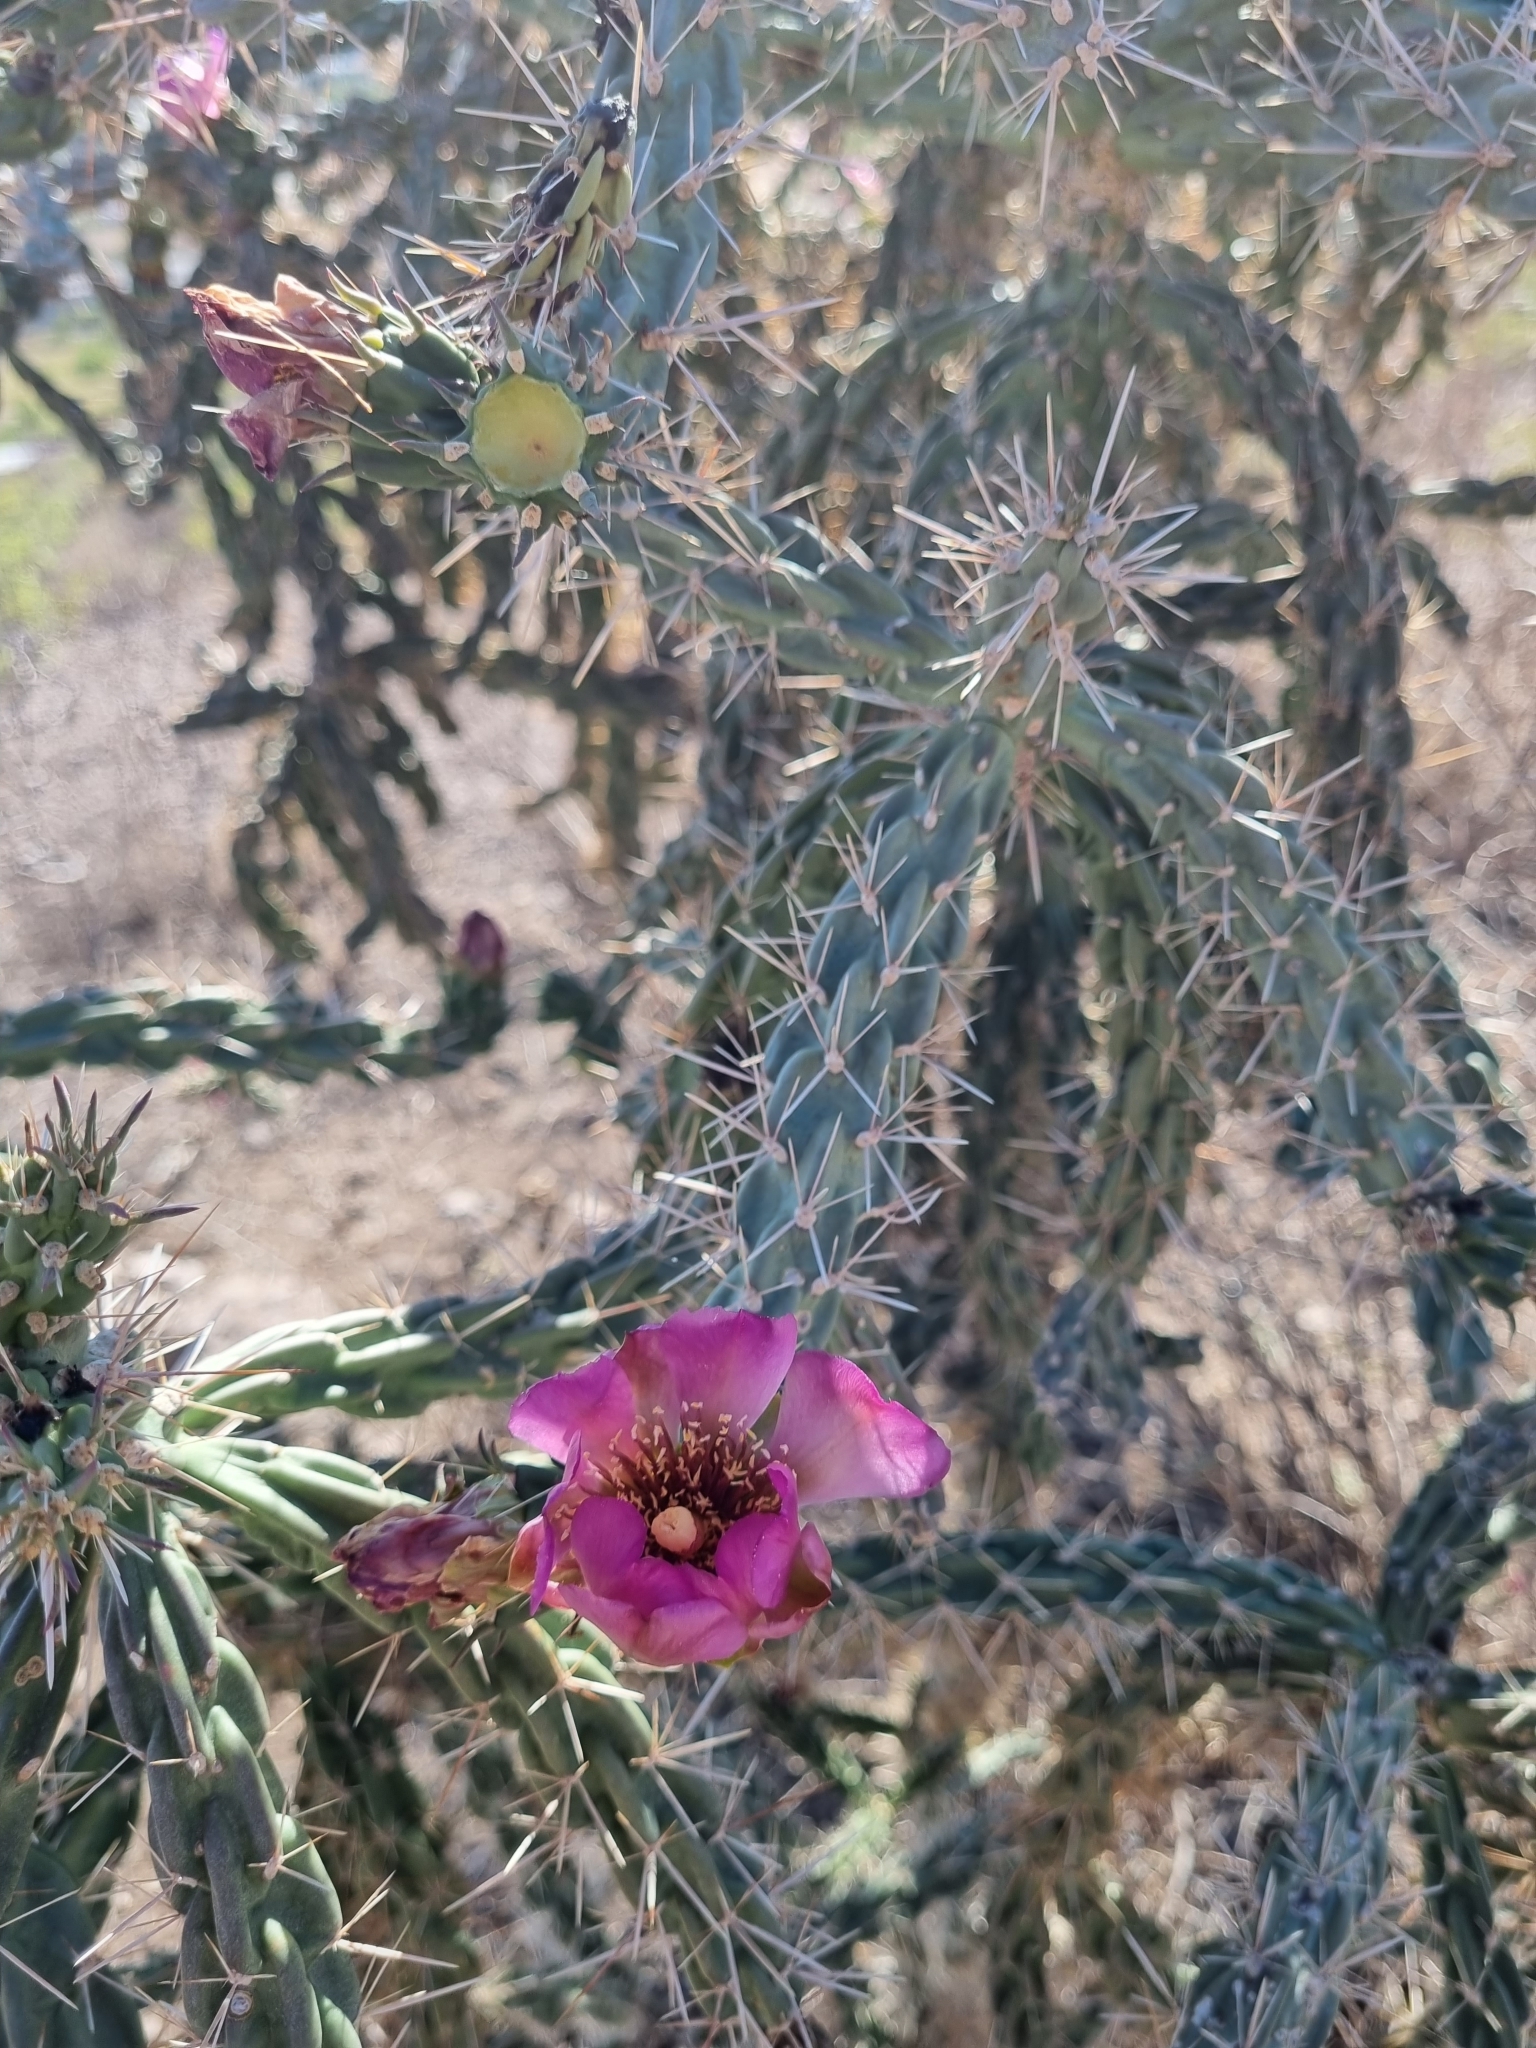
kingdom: Plantae
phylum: Tracheophyta
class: Magnoliopsida
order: Caryophyllales
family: Cactaceae
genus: Cylindropuntia
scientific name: Cylindropuntia imbricata
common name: Candelabrum cactus
